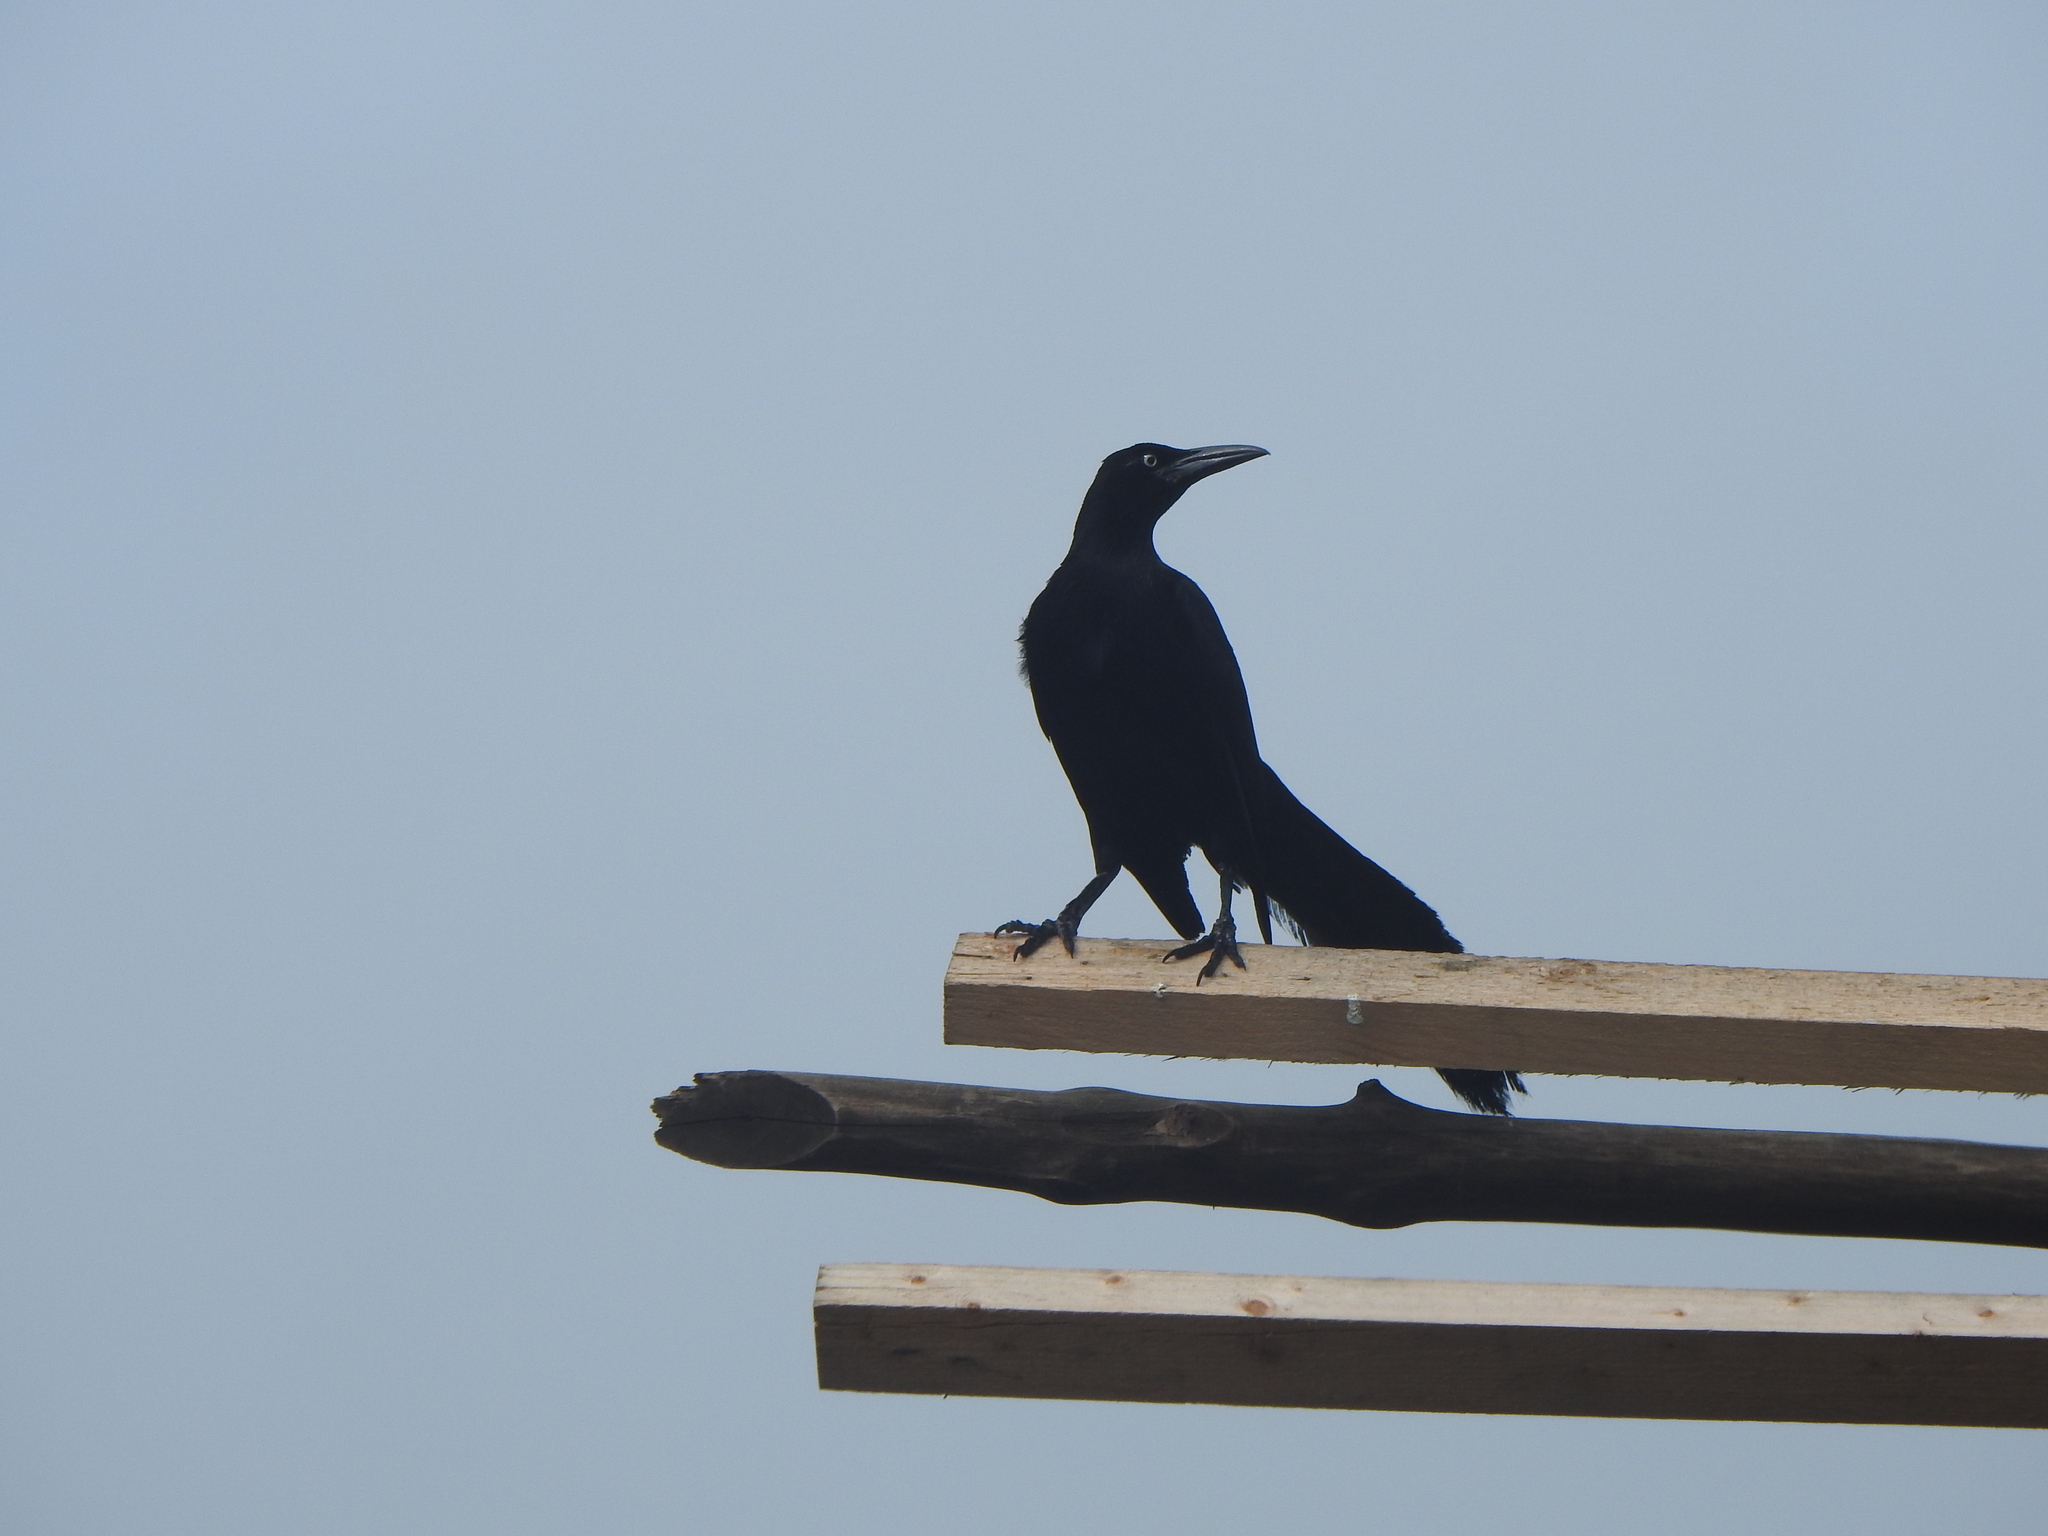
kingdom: Animalia
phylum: Chordata
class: Aves
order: Passeriformes
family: Icteridae
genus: Quiscalus
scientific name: Quiscalus mexicanus
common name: Great-tailed grackle
